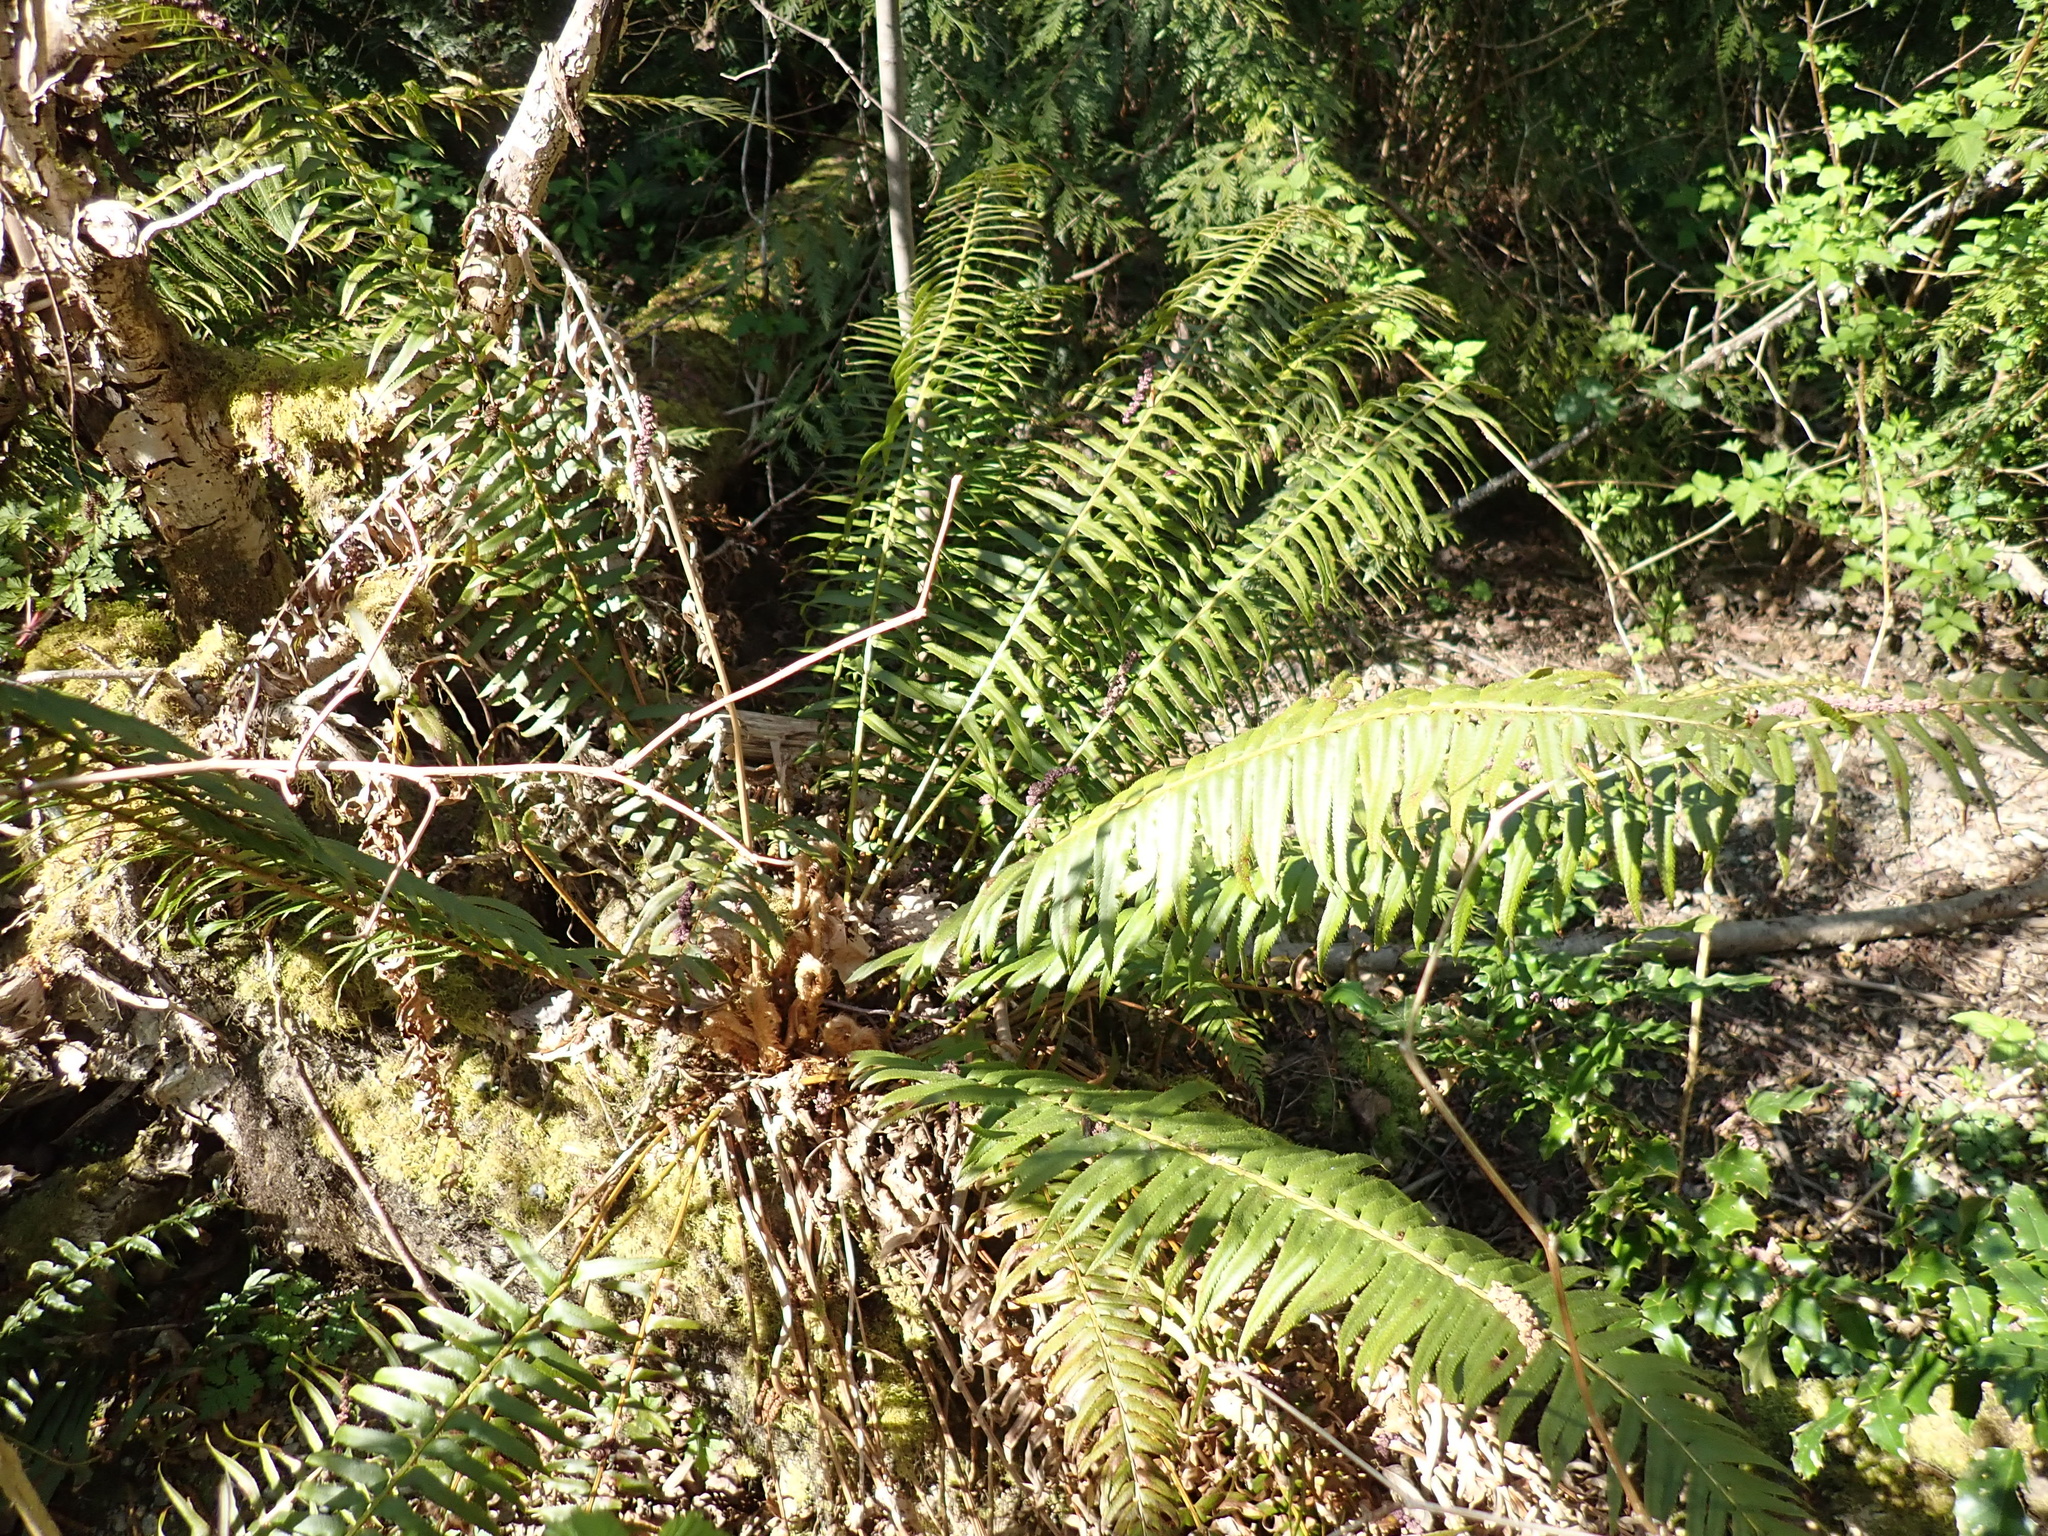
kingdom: Plantae
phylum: Tracheophyta
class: Polypodiopsida
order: Polypodiales
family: Dryopteridaceae
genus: Polystichum
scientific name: Polystichum munitum
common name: Western sword-fern
